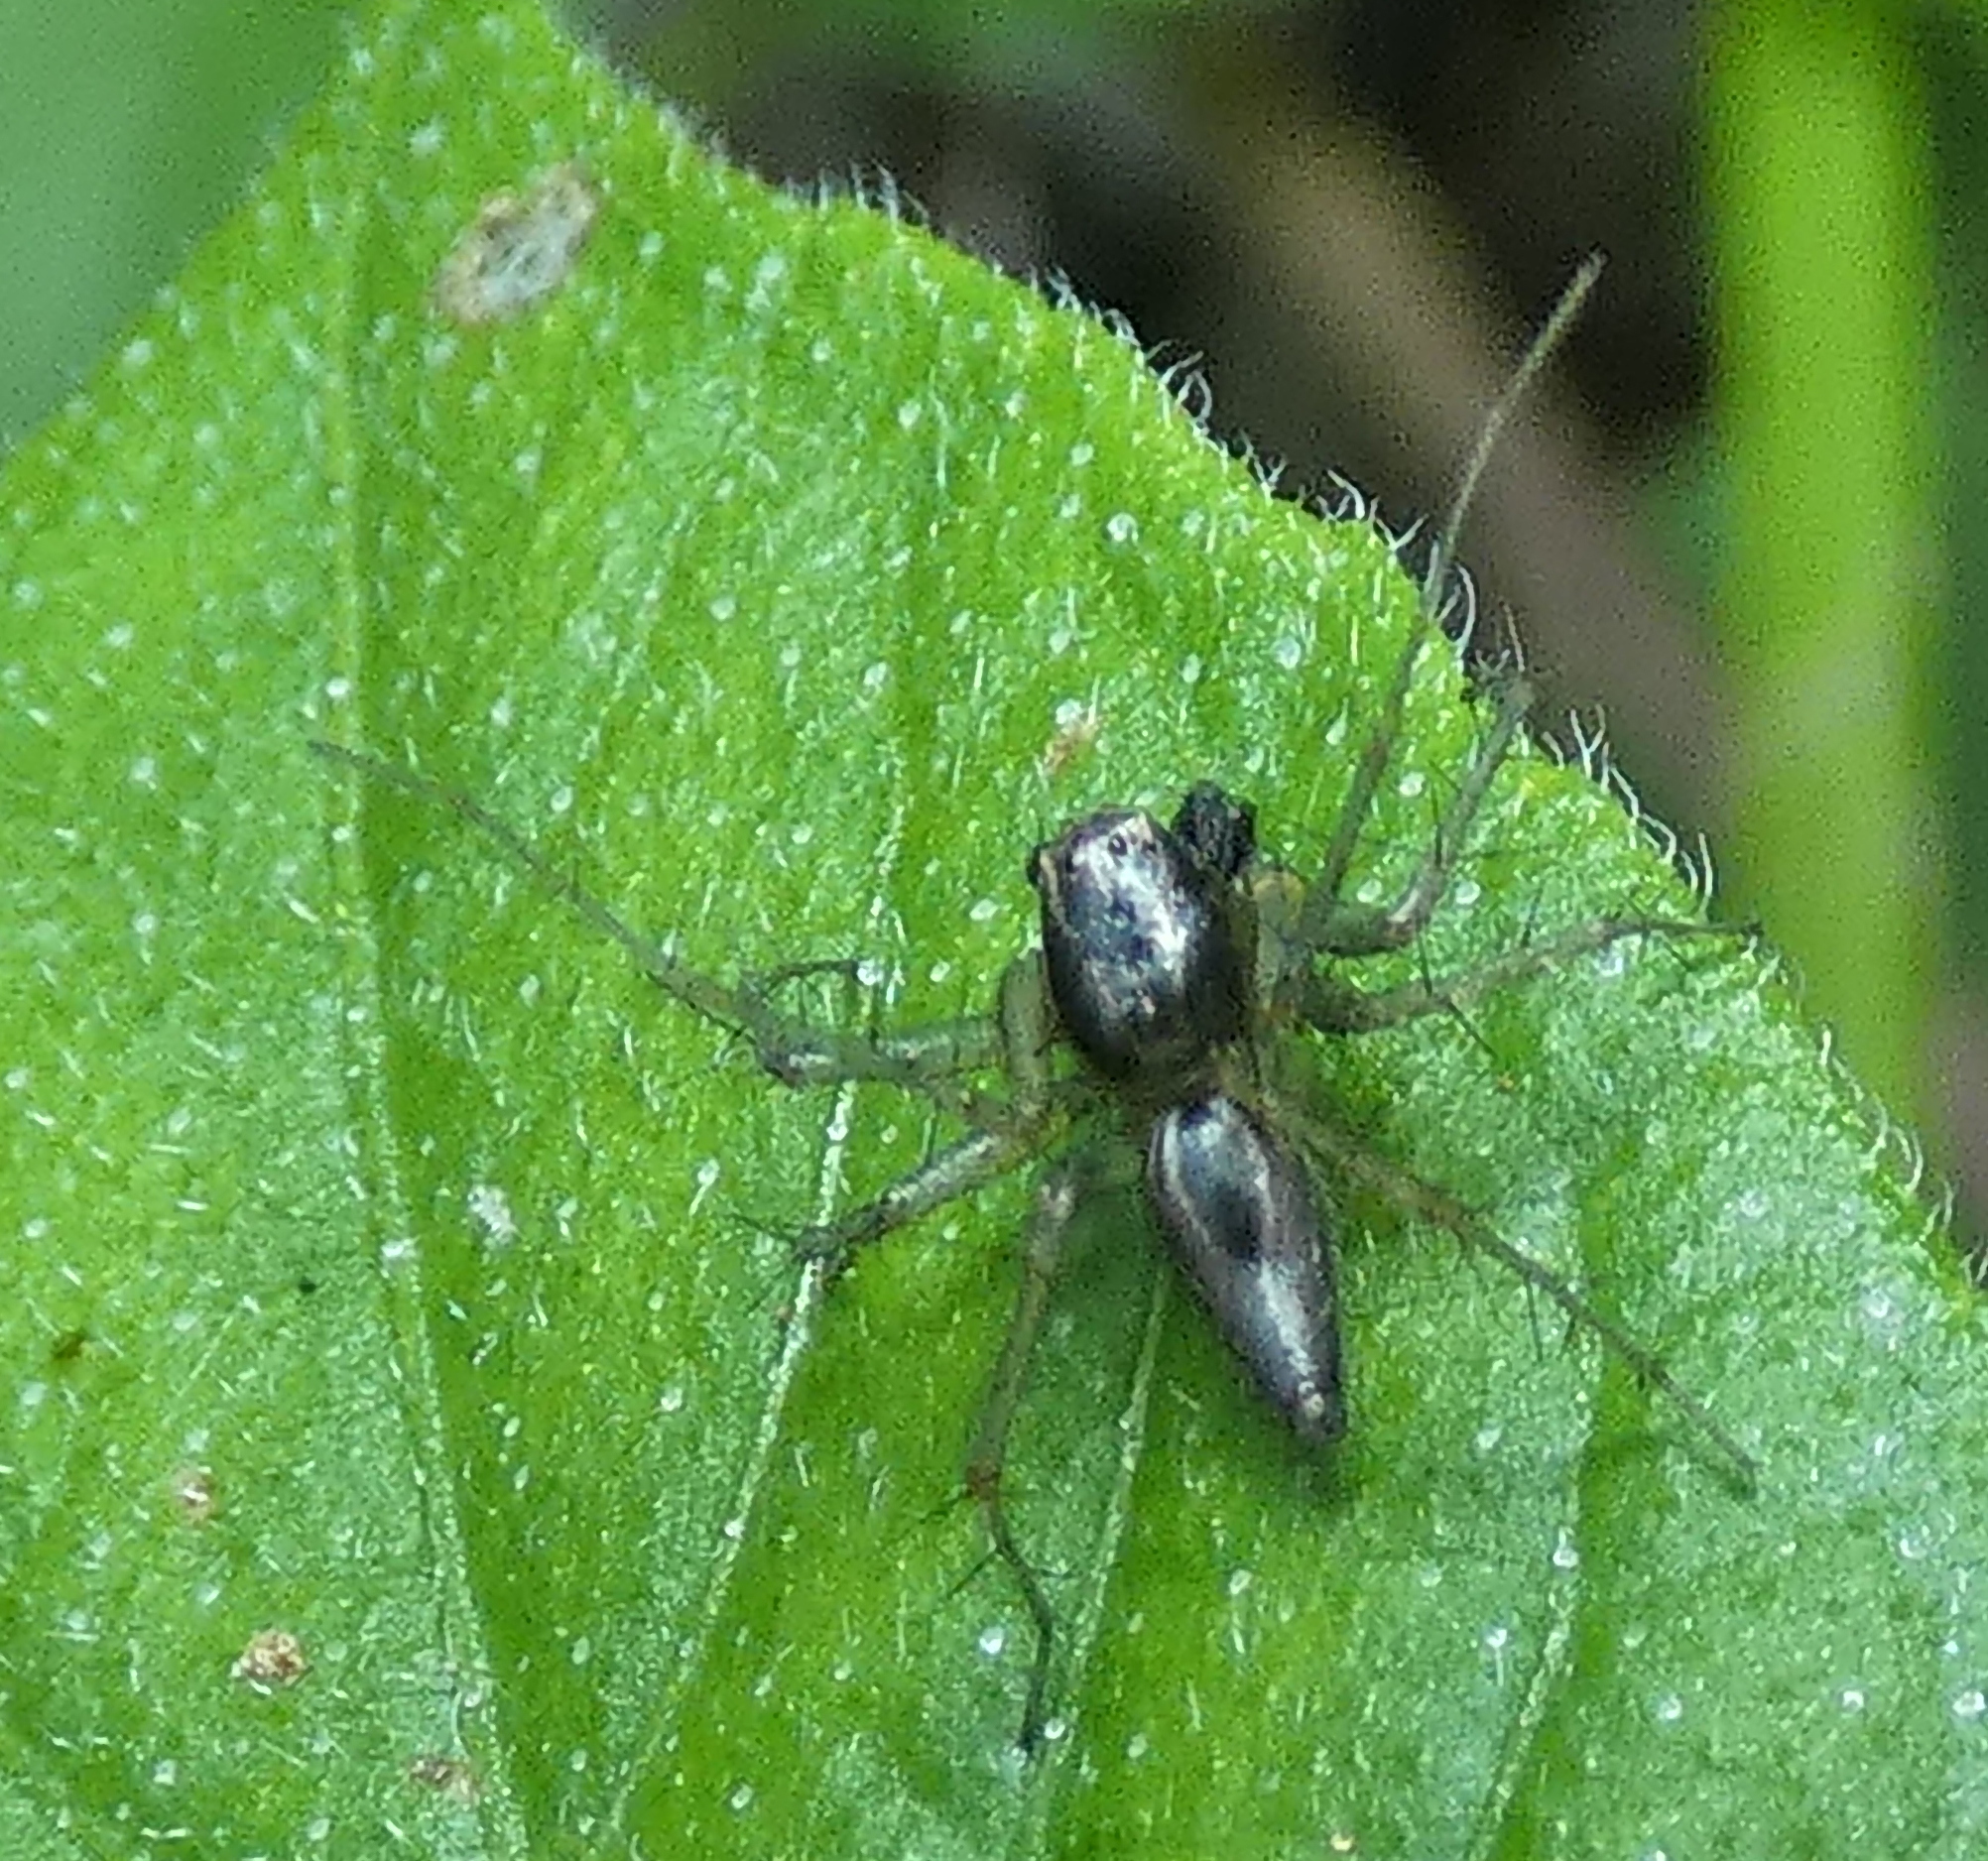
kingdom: Animalia
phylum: Arthropoda
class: Arachnida
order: Araneae
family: Oxyopidae
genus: Oxyopes
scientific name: Oxyopes salticus
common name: Lynx spiders
